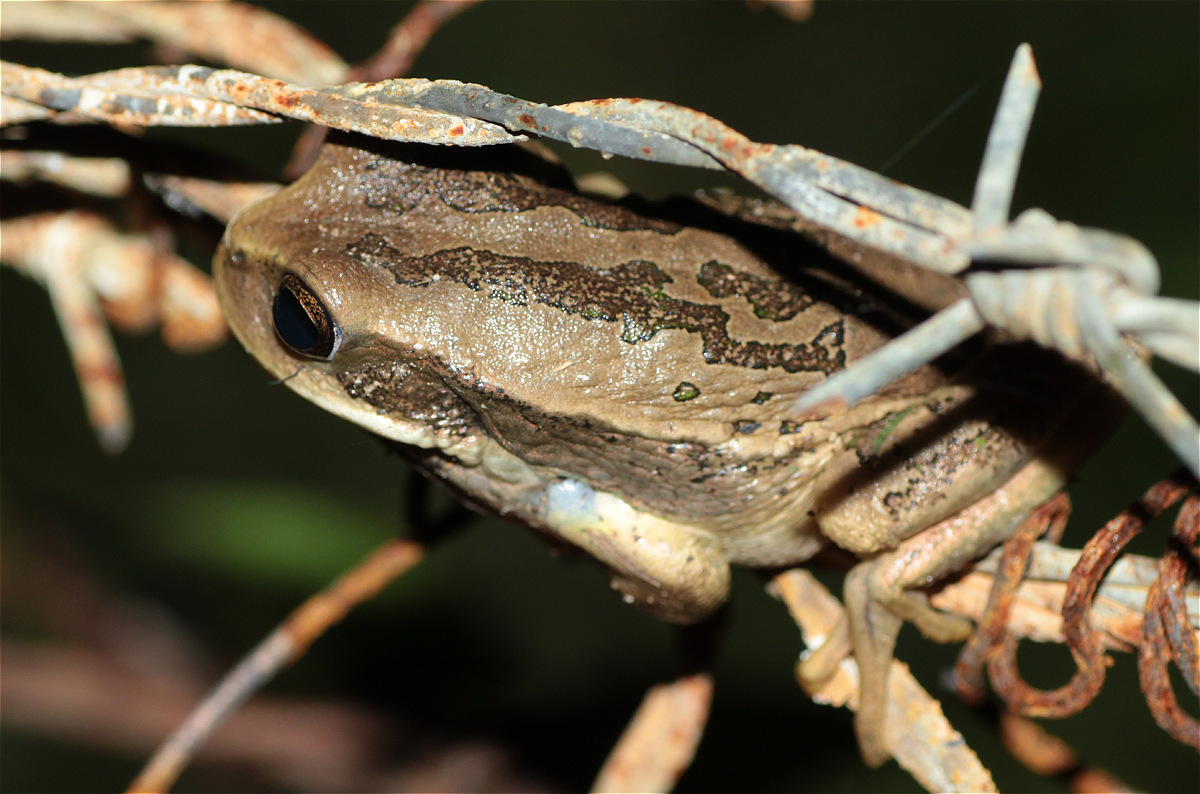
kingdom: Animalia
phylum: Chordata
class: Amphibia
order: Anura
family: Hemiphractidae
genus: Gastrotheca
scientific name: Gastrotheca cuencana
